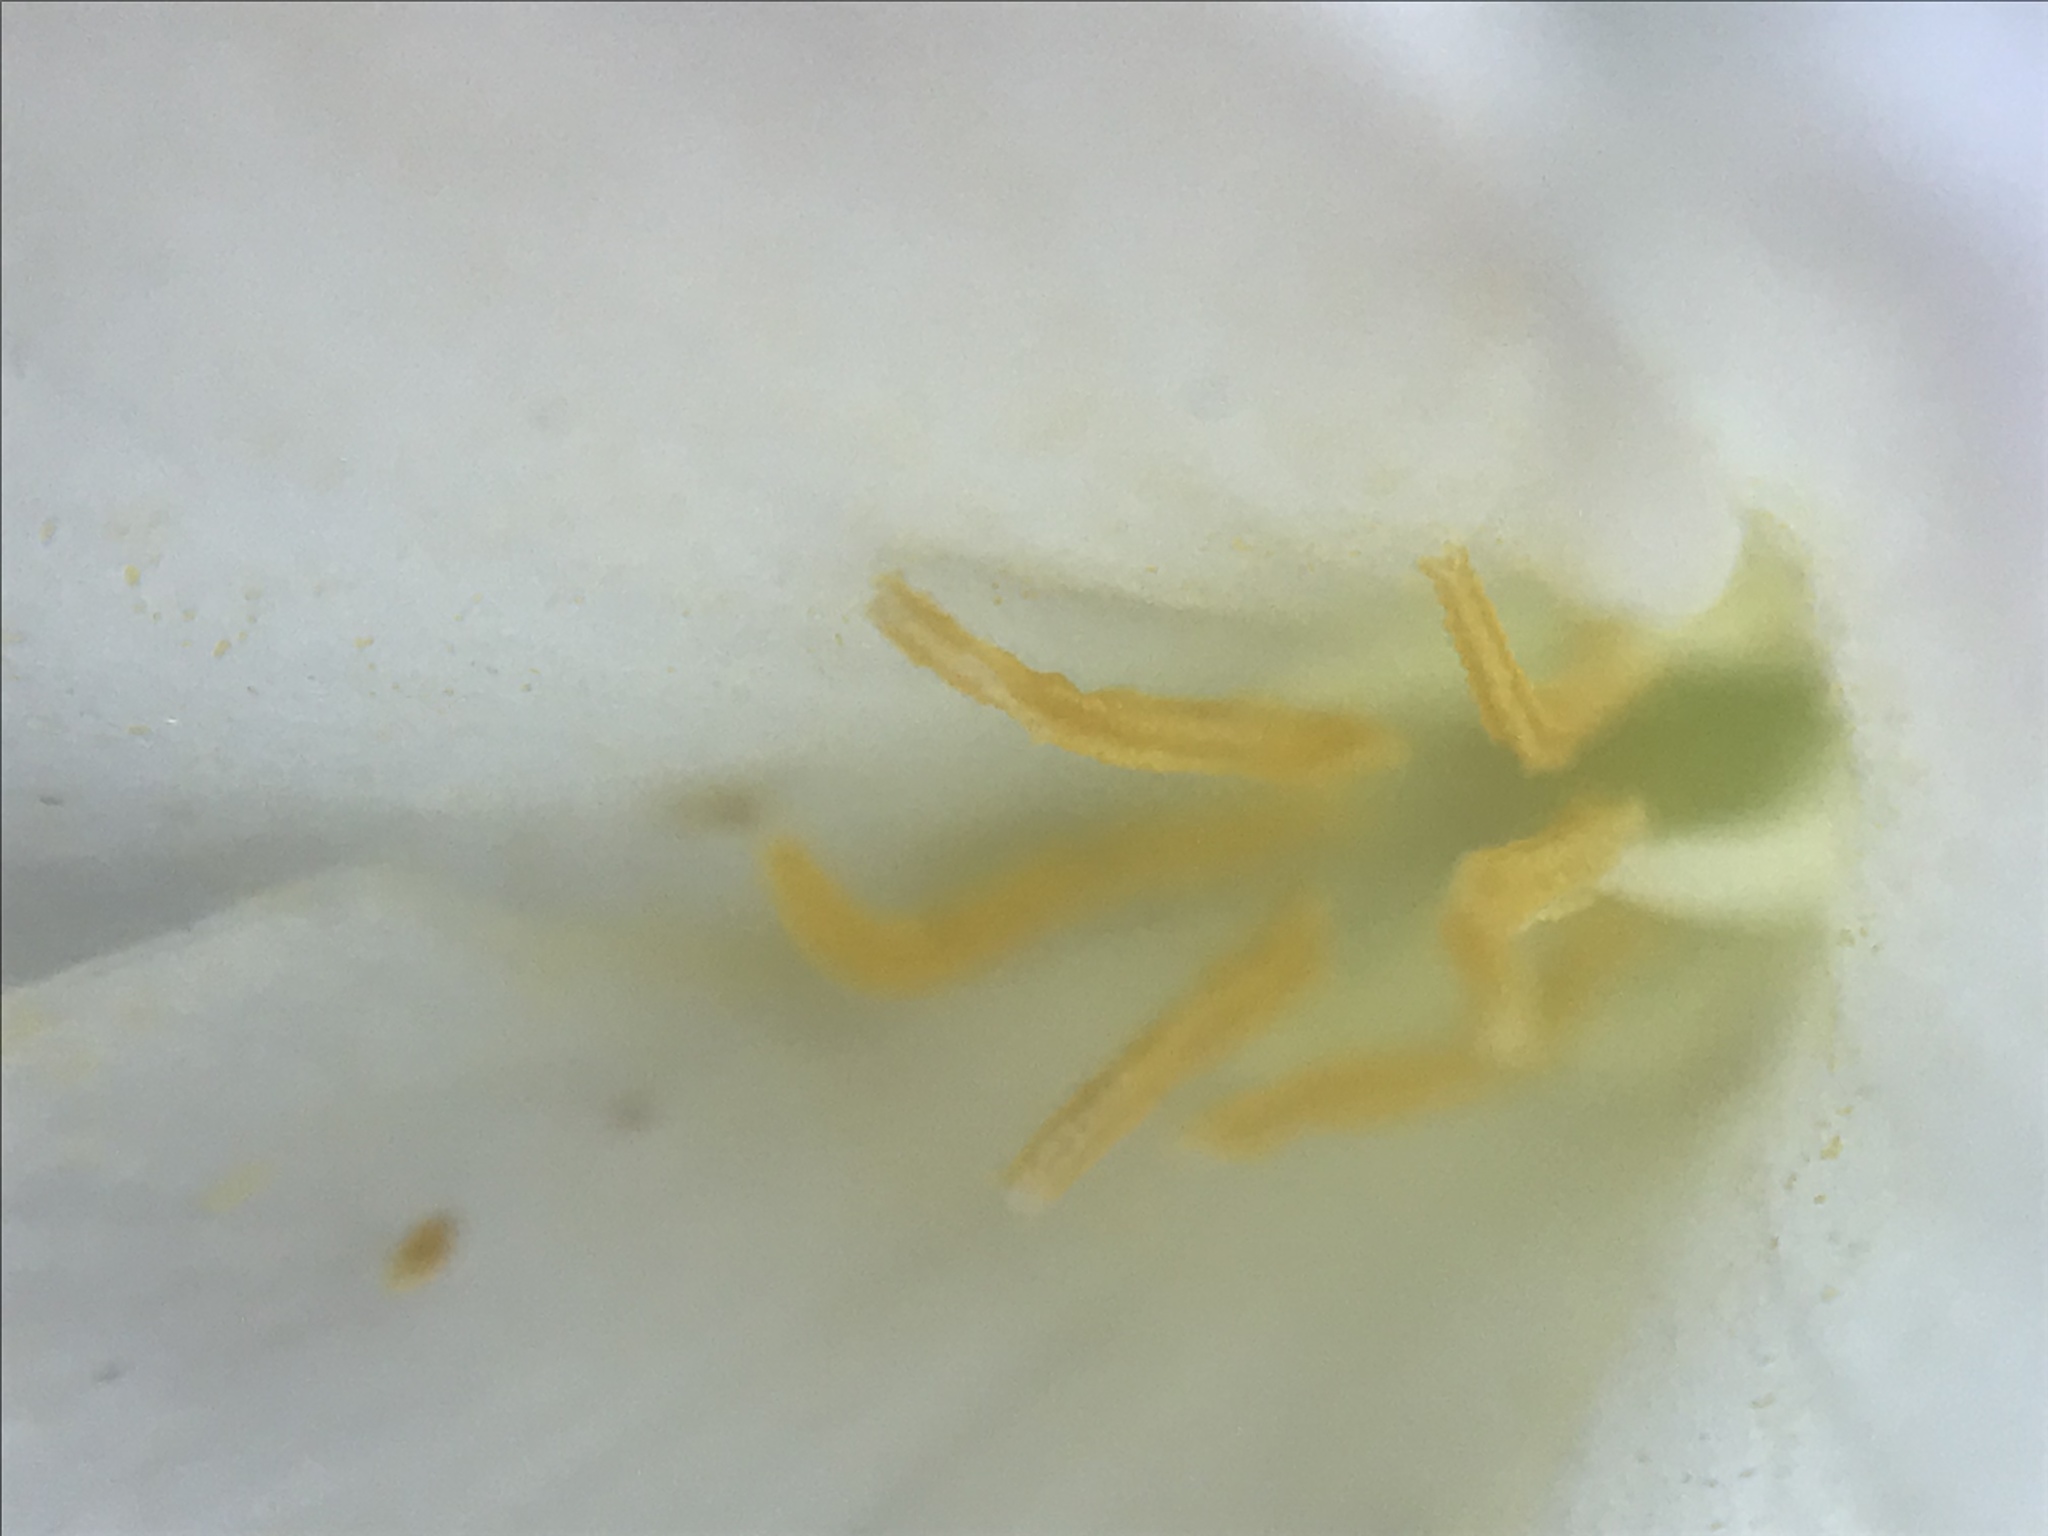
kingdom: Plantae
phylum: Tracheophyta
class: Liliopsida
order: Asparagales
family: Amaryllidaceae
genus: Zephyranthes
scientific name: Zephyranthes drummondii
